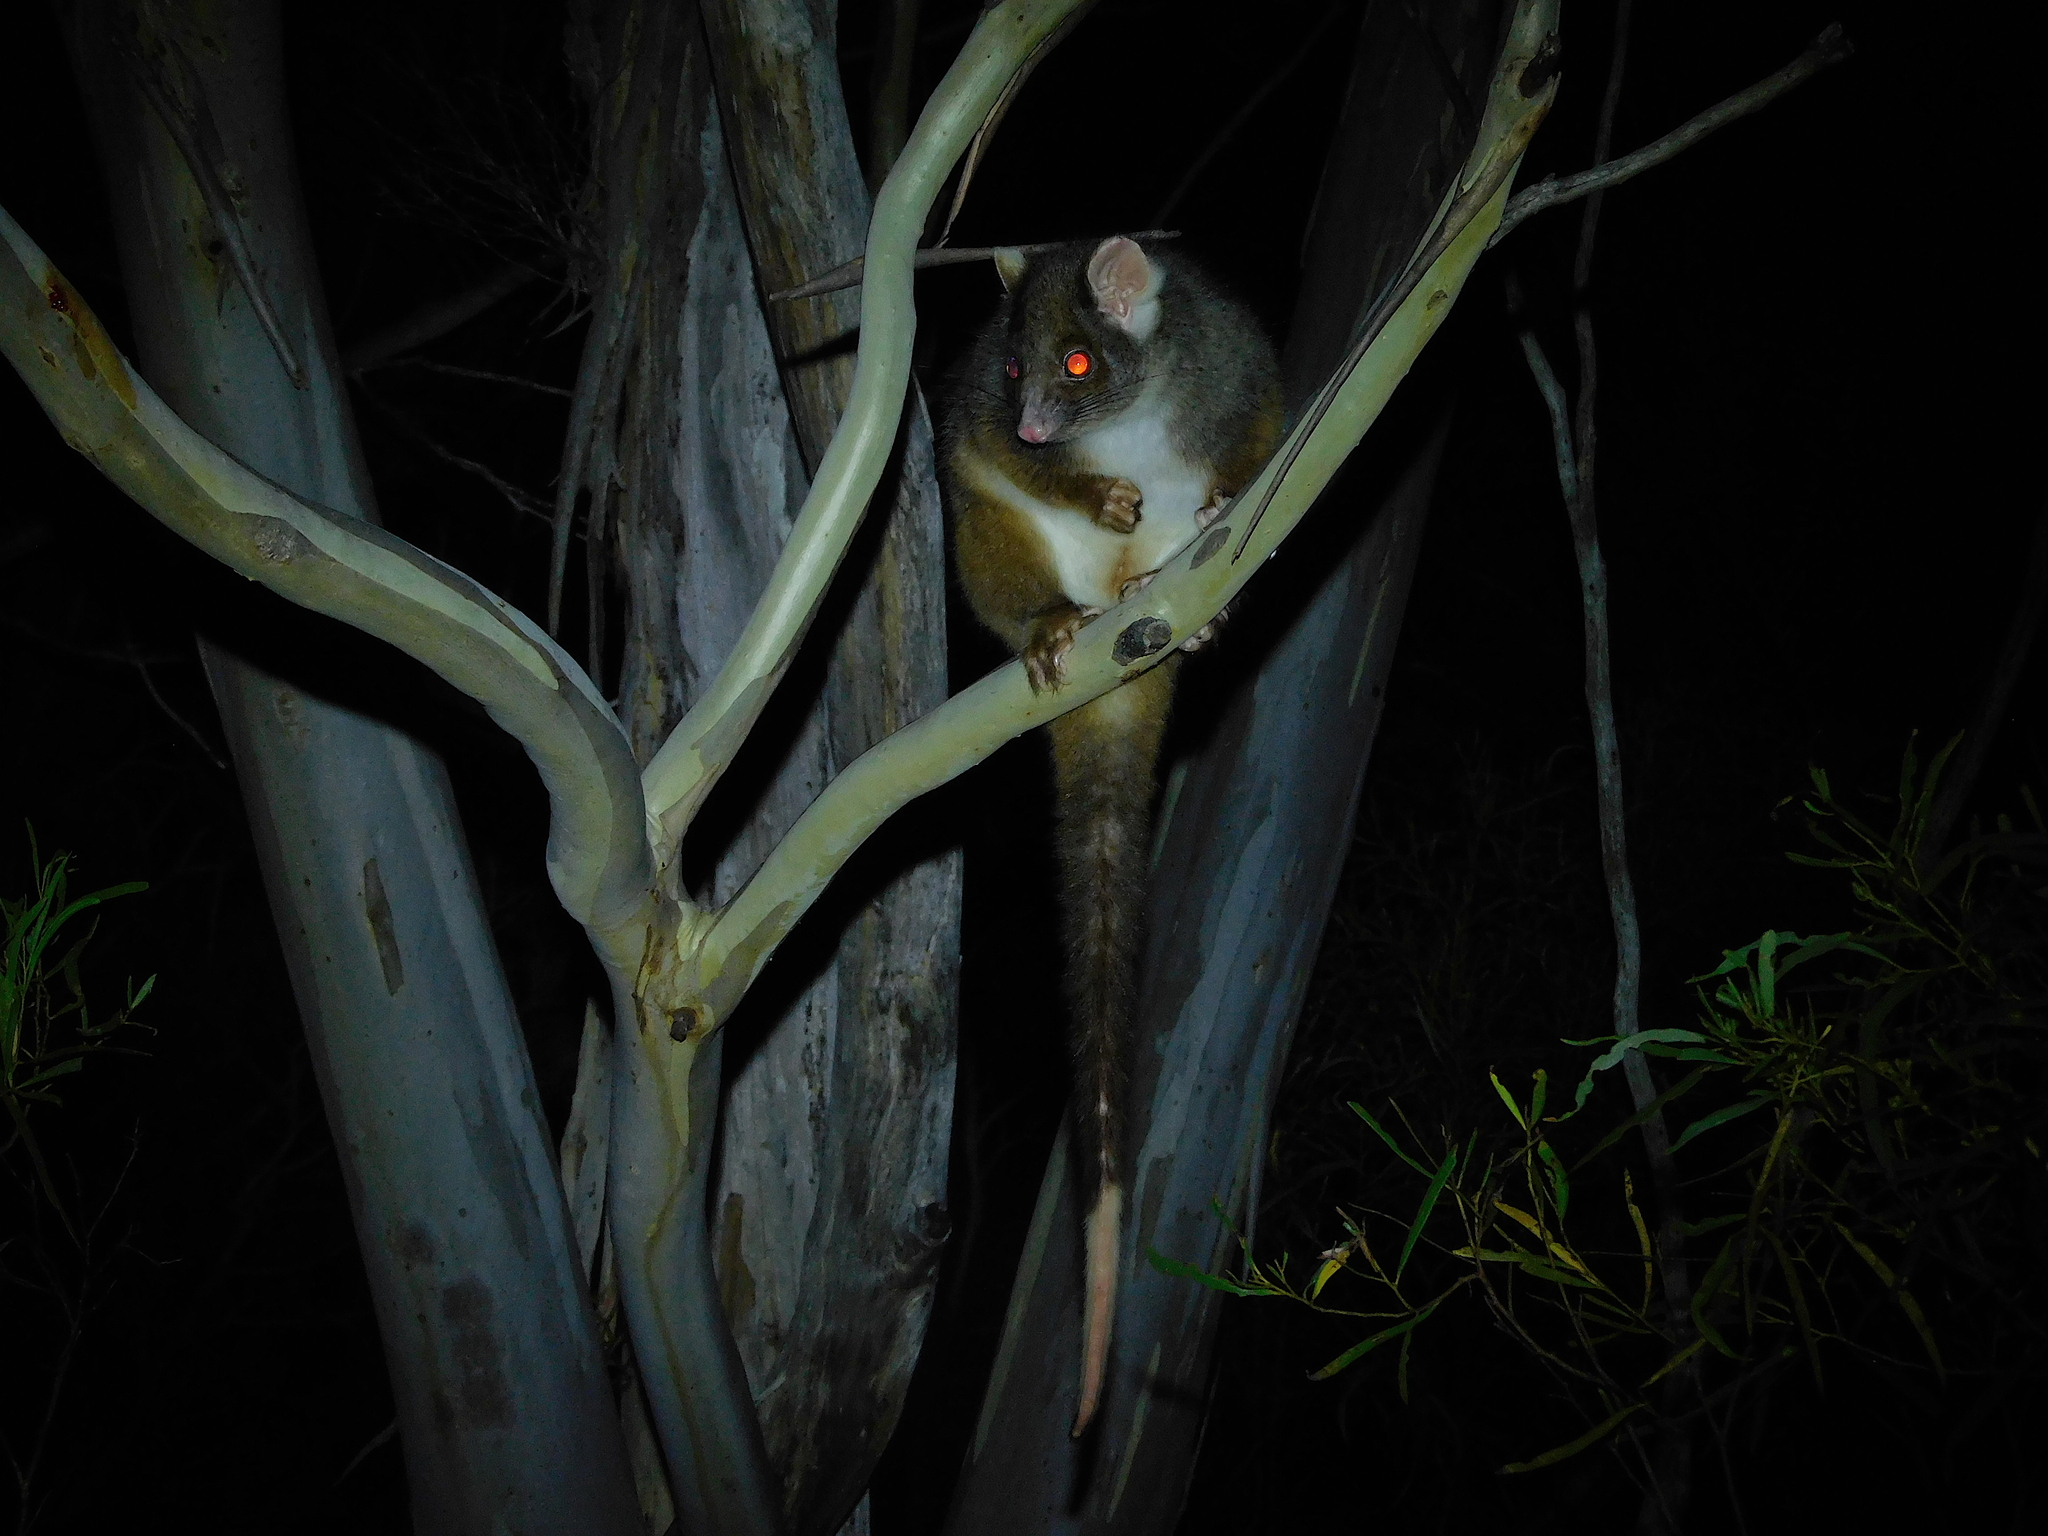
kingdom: Animalia
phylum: Chordata
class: Mammalia
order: Diprotodontia
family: Pseudocheiridae
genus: Pseudocheirus
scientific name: Pseudocheirus peregrinus
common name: Common ringtail possum
